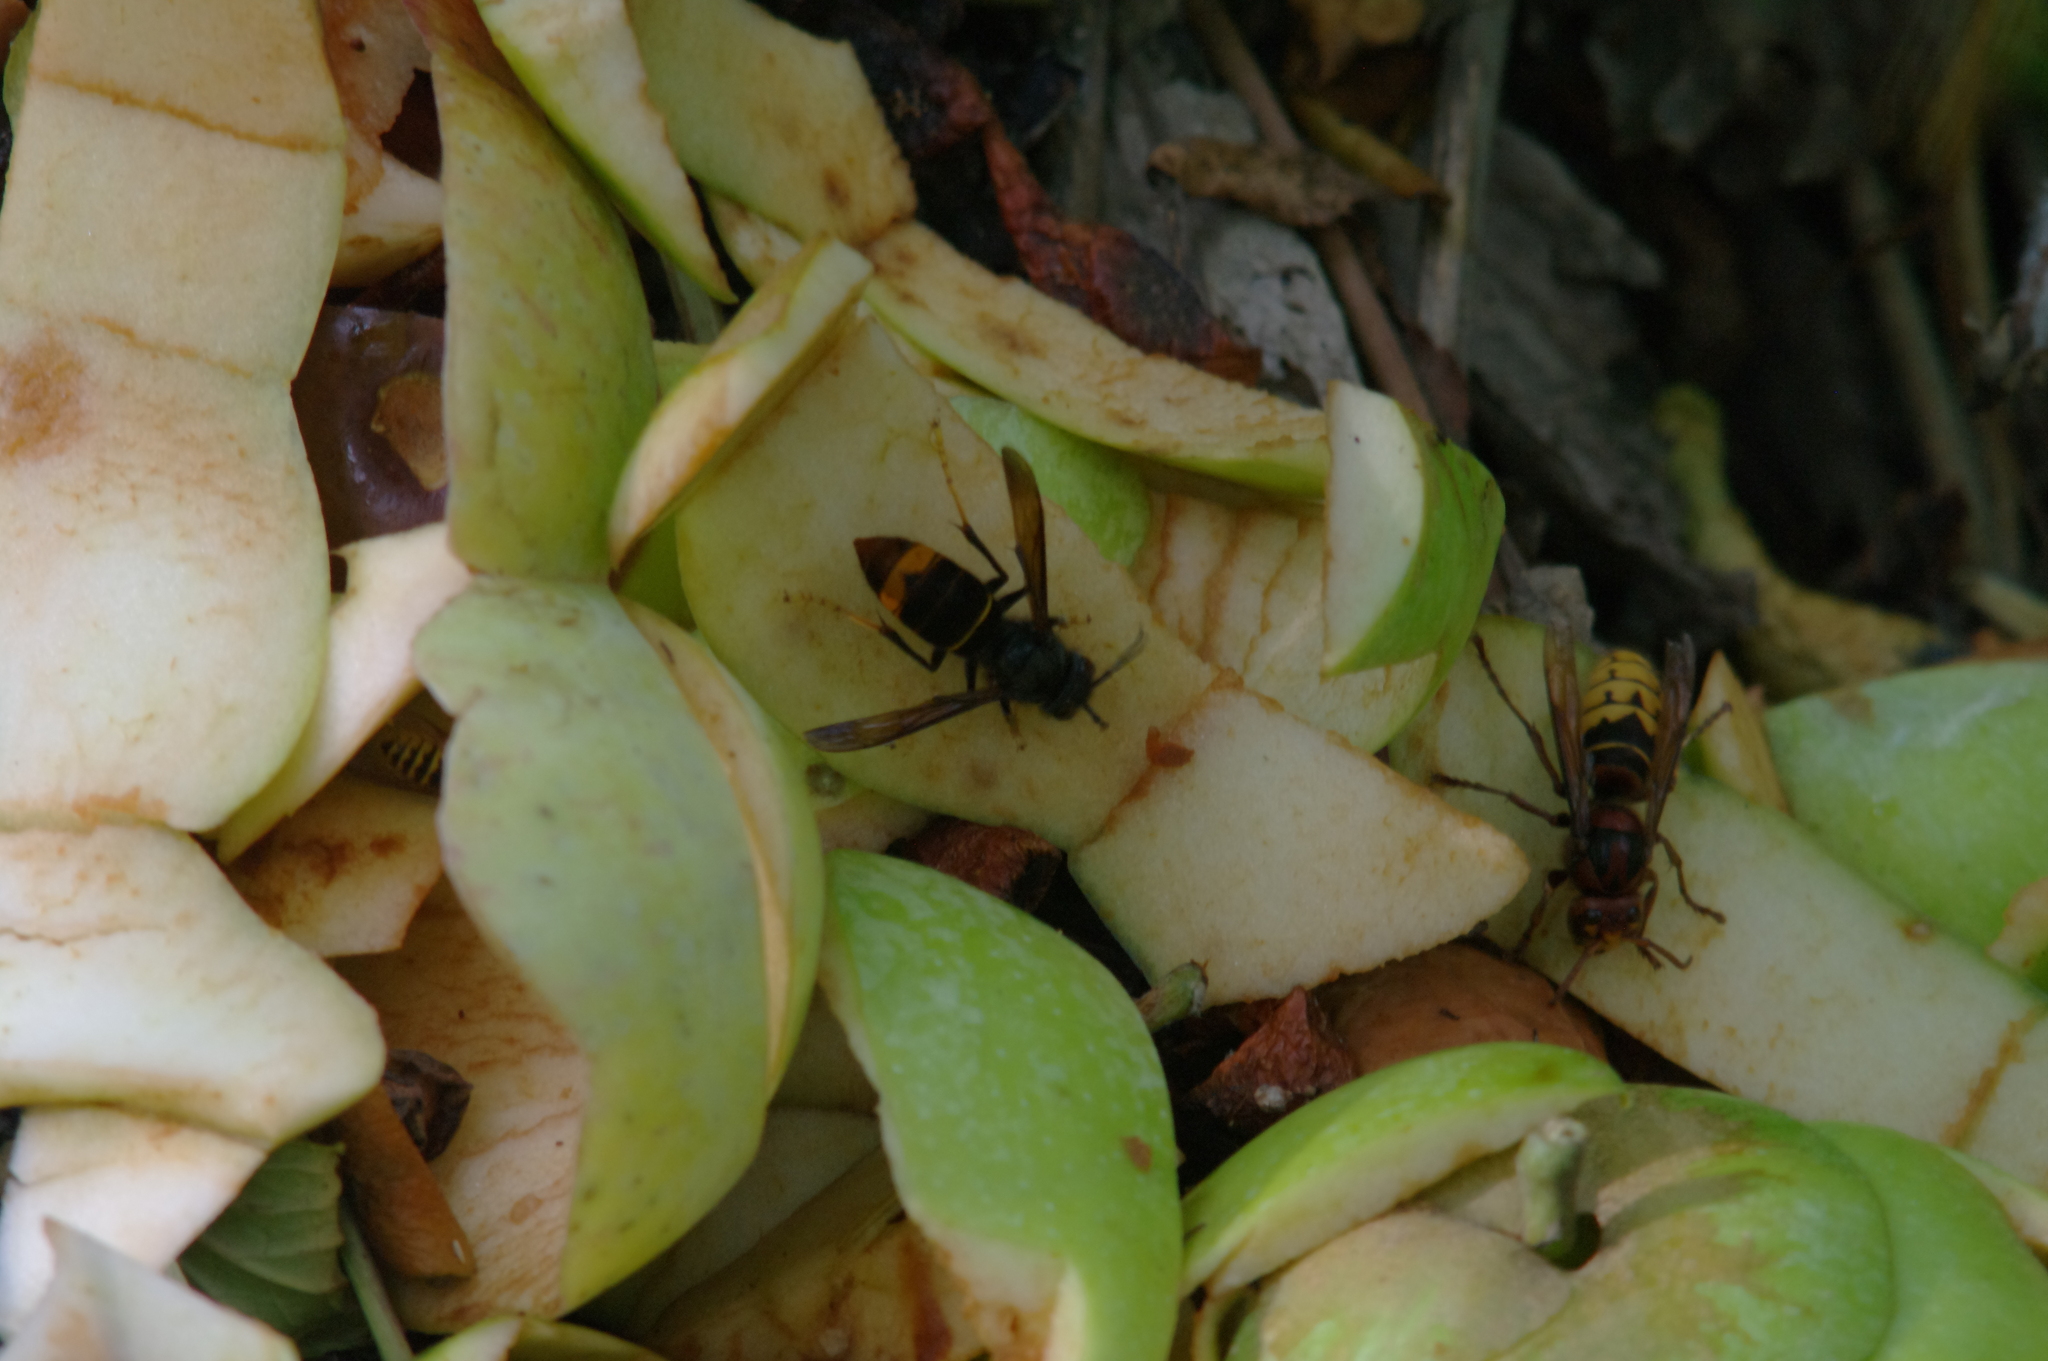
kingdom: Animalia
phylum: Arthropoda
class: Insecta
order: Hymenoptera
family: Vespidae
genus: Vespa
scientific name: Vespa velutina
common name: Asian hornet
